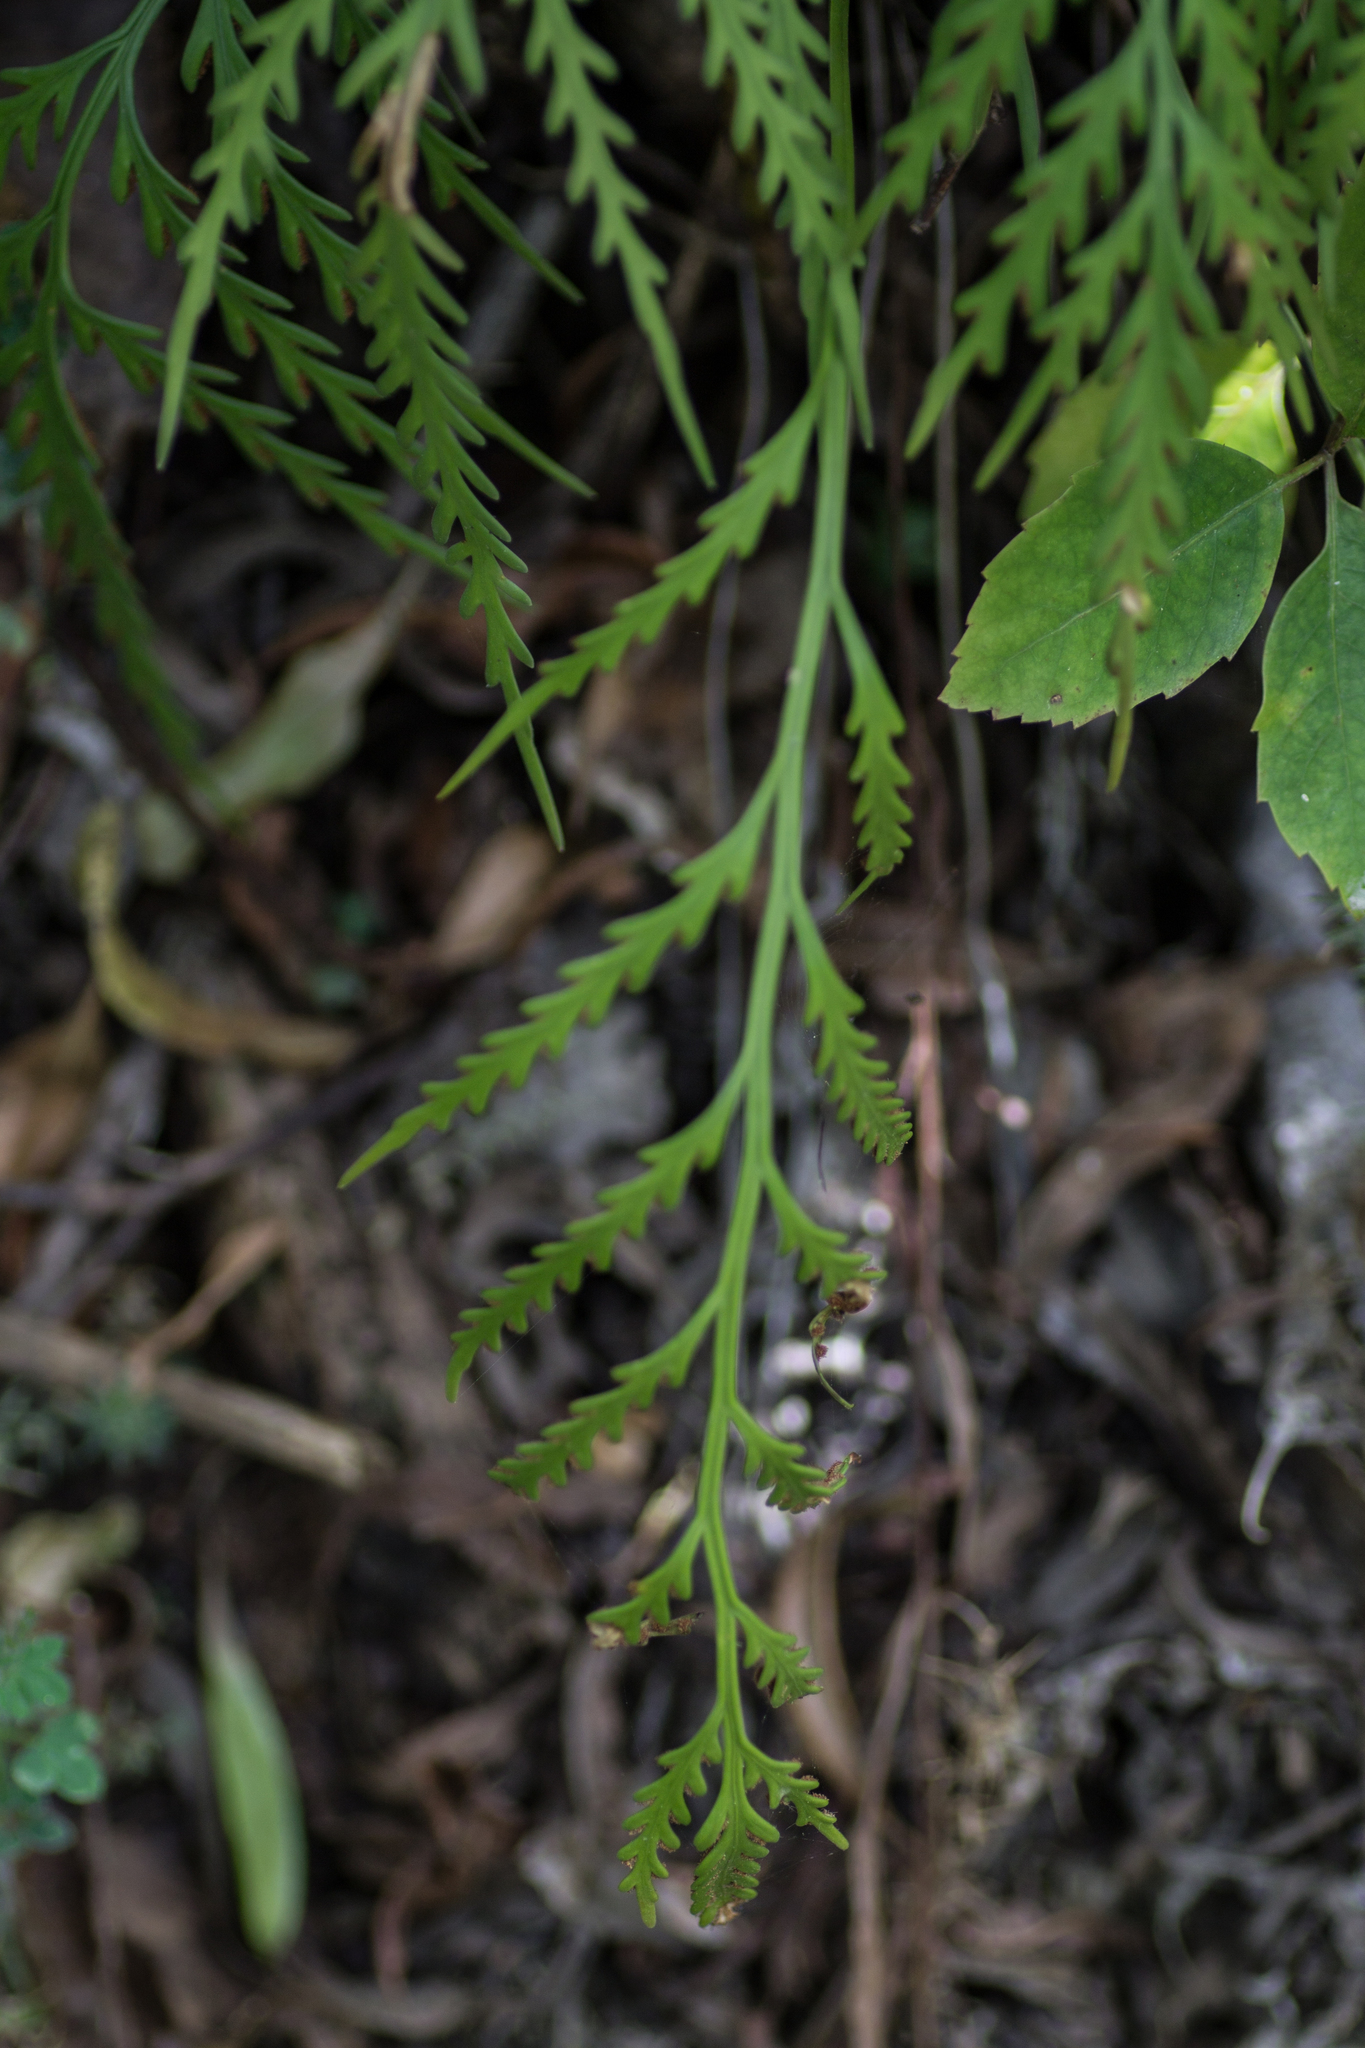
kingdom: Plantae
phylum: Tracheophyta
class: Polypodiopsida
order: Polypodiales
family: Aspleniaceae
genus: Asplenium
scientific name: Asplenium flaccidum
